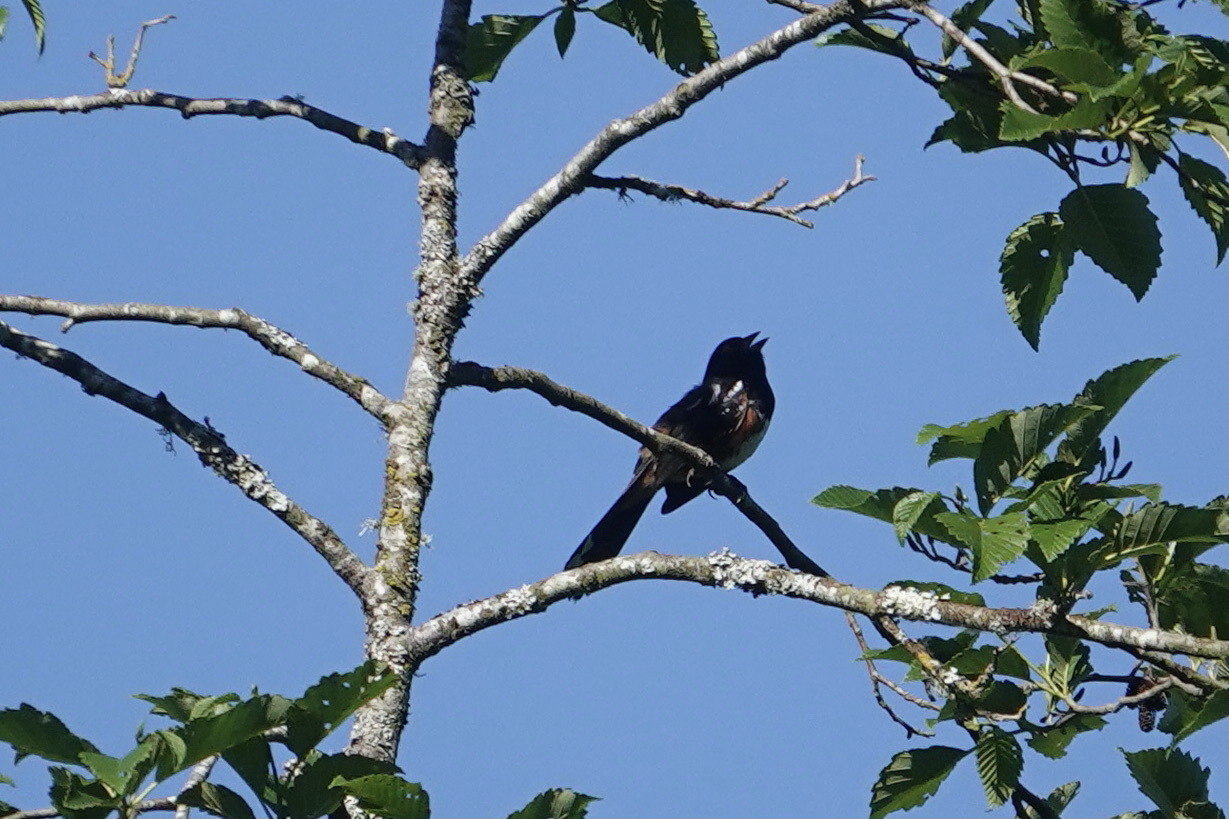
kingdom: Animalia
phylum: Chordata
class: Aves
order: Passeriformes
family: Passerellidae
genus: Pipilo
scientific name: Pipilo maculatus
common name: Spotted towhee
